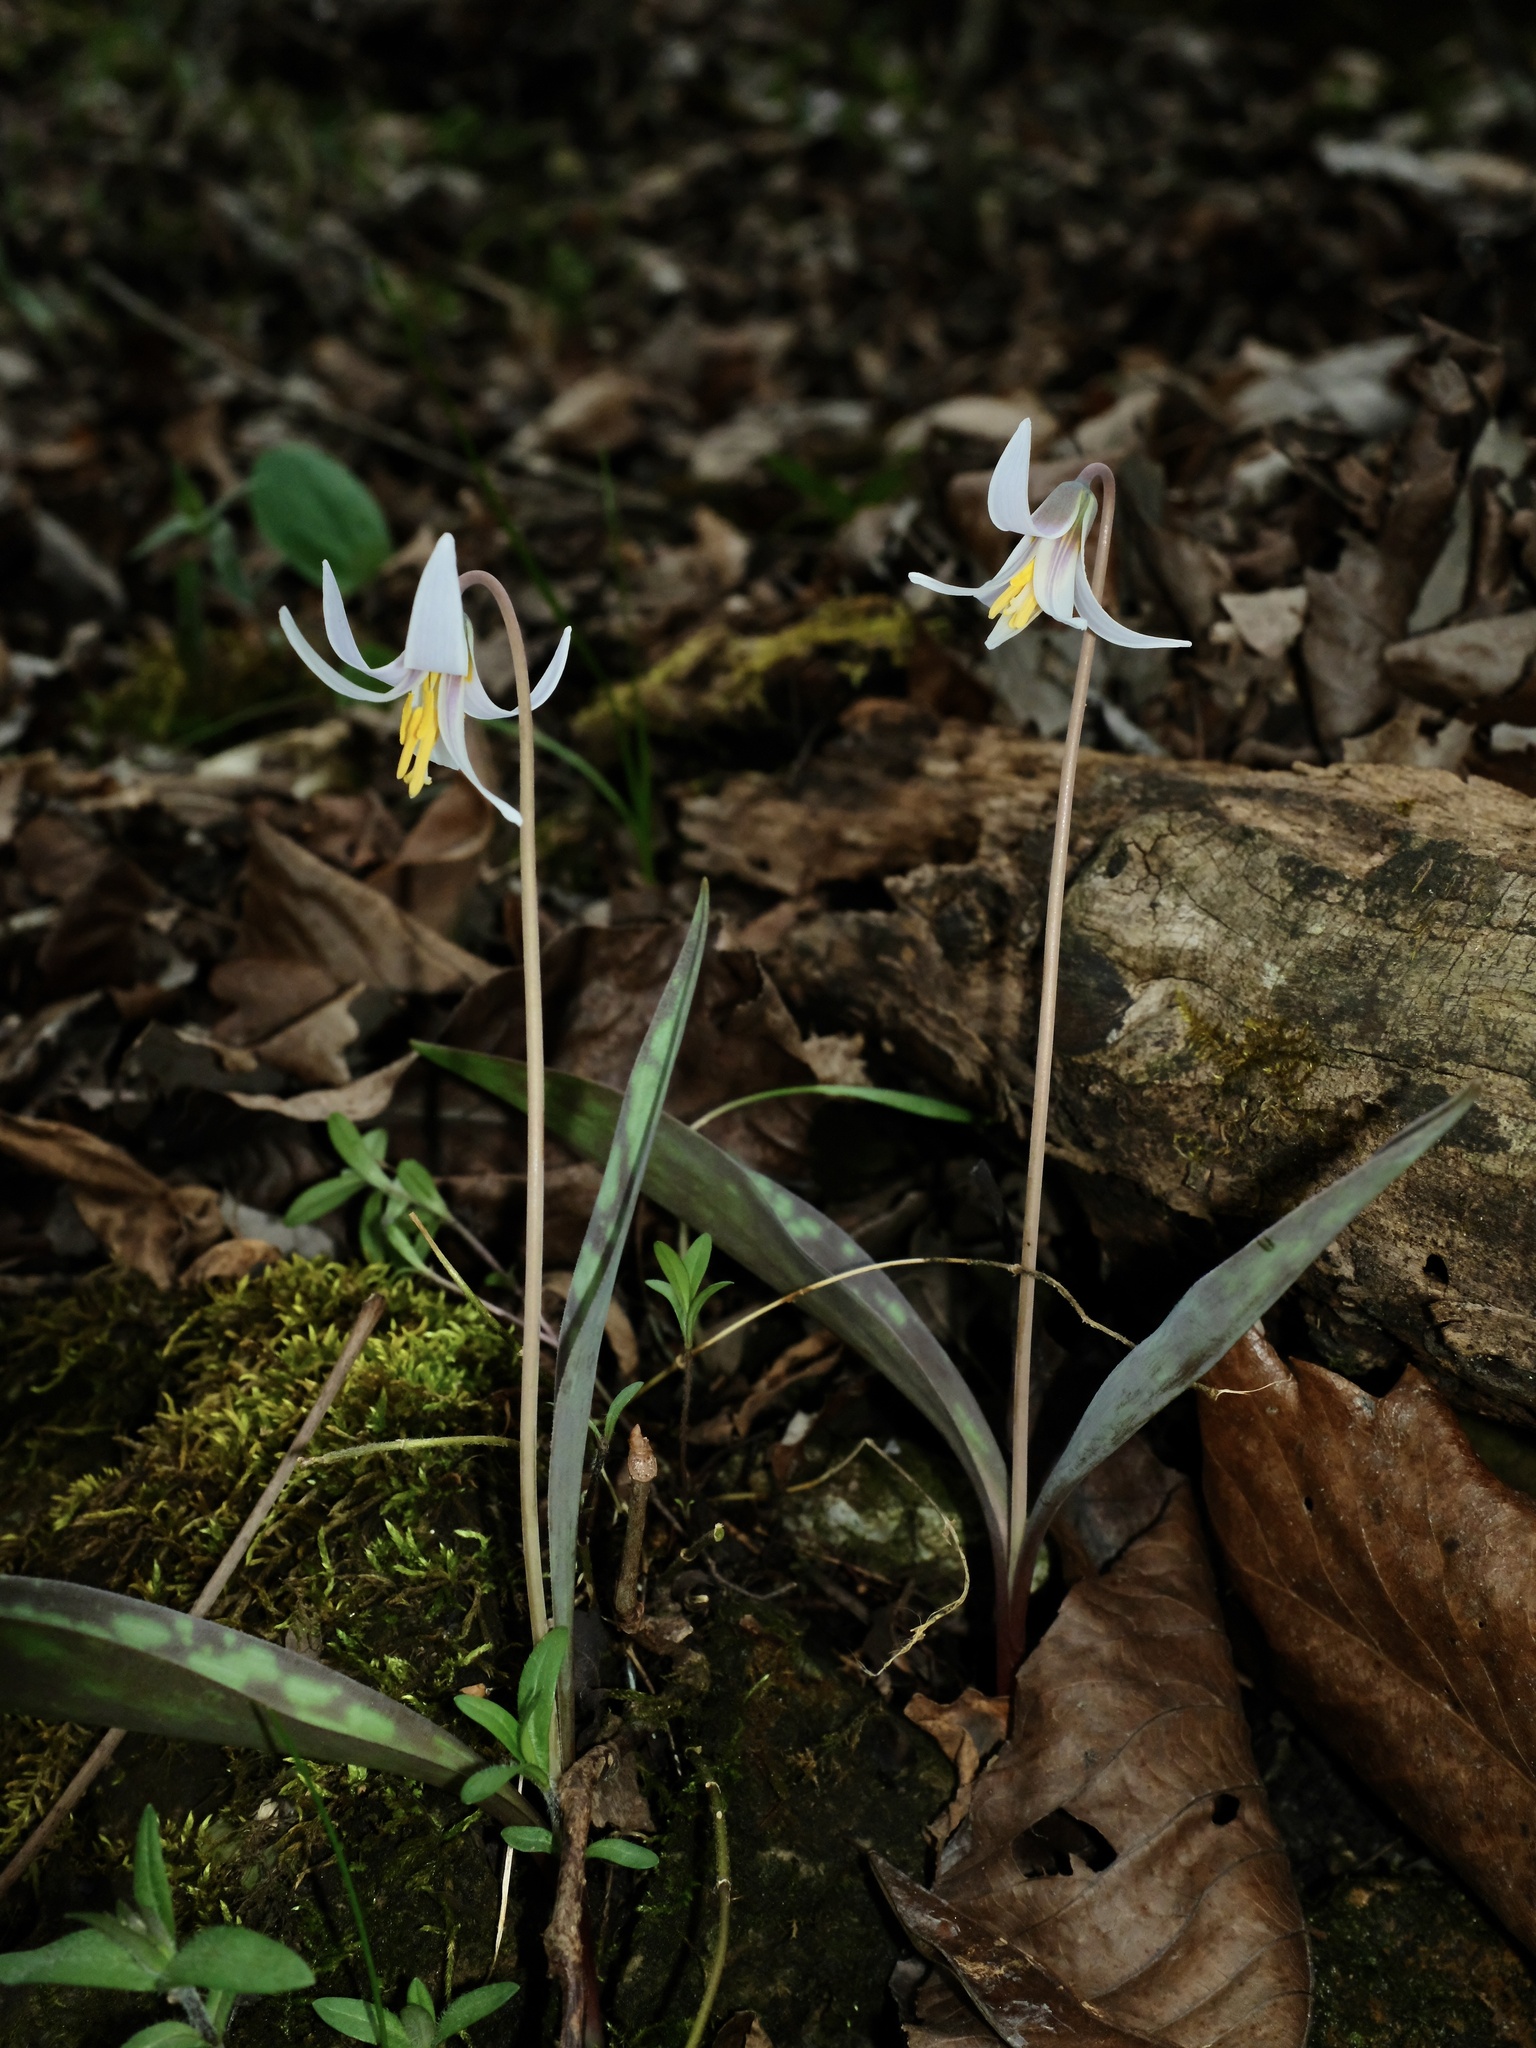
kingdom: Plantae
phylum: Tracheophyta
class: Liliopsida
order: Liliales
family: Liliaceae
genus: Erythronium
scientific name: Erythronium albidum
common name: White trout-lily
